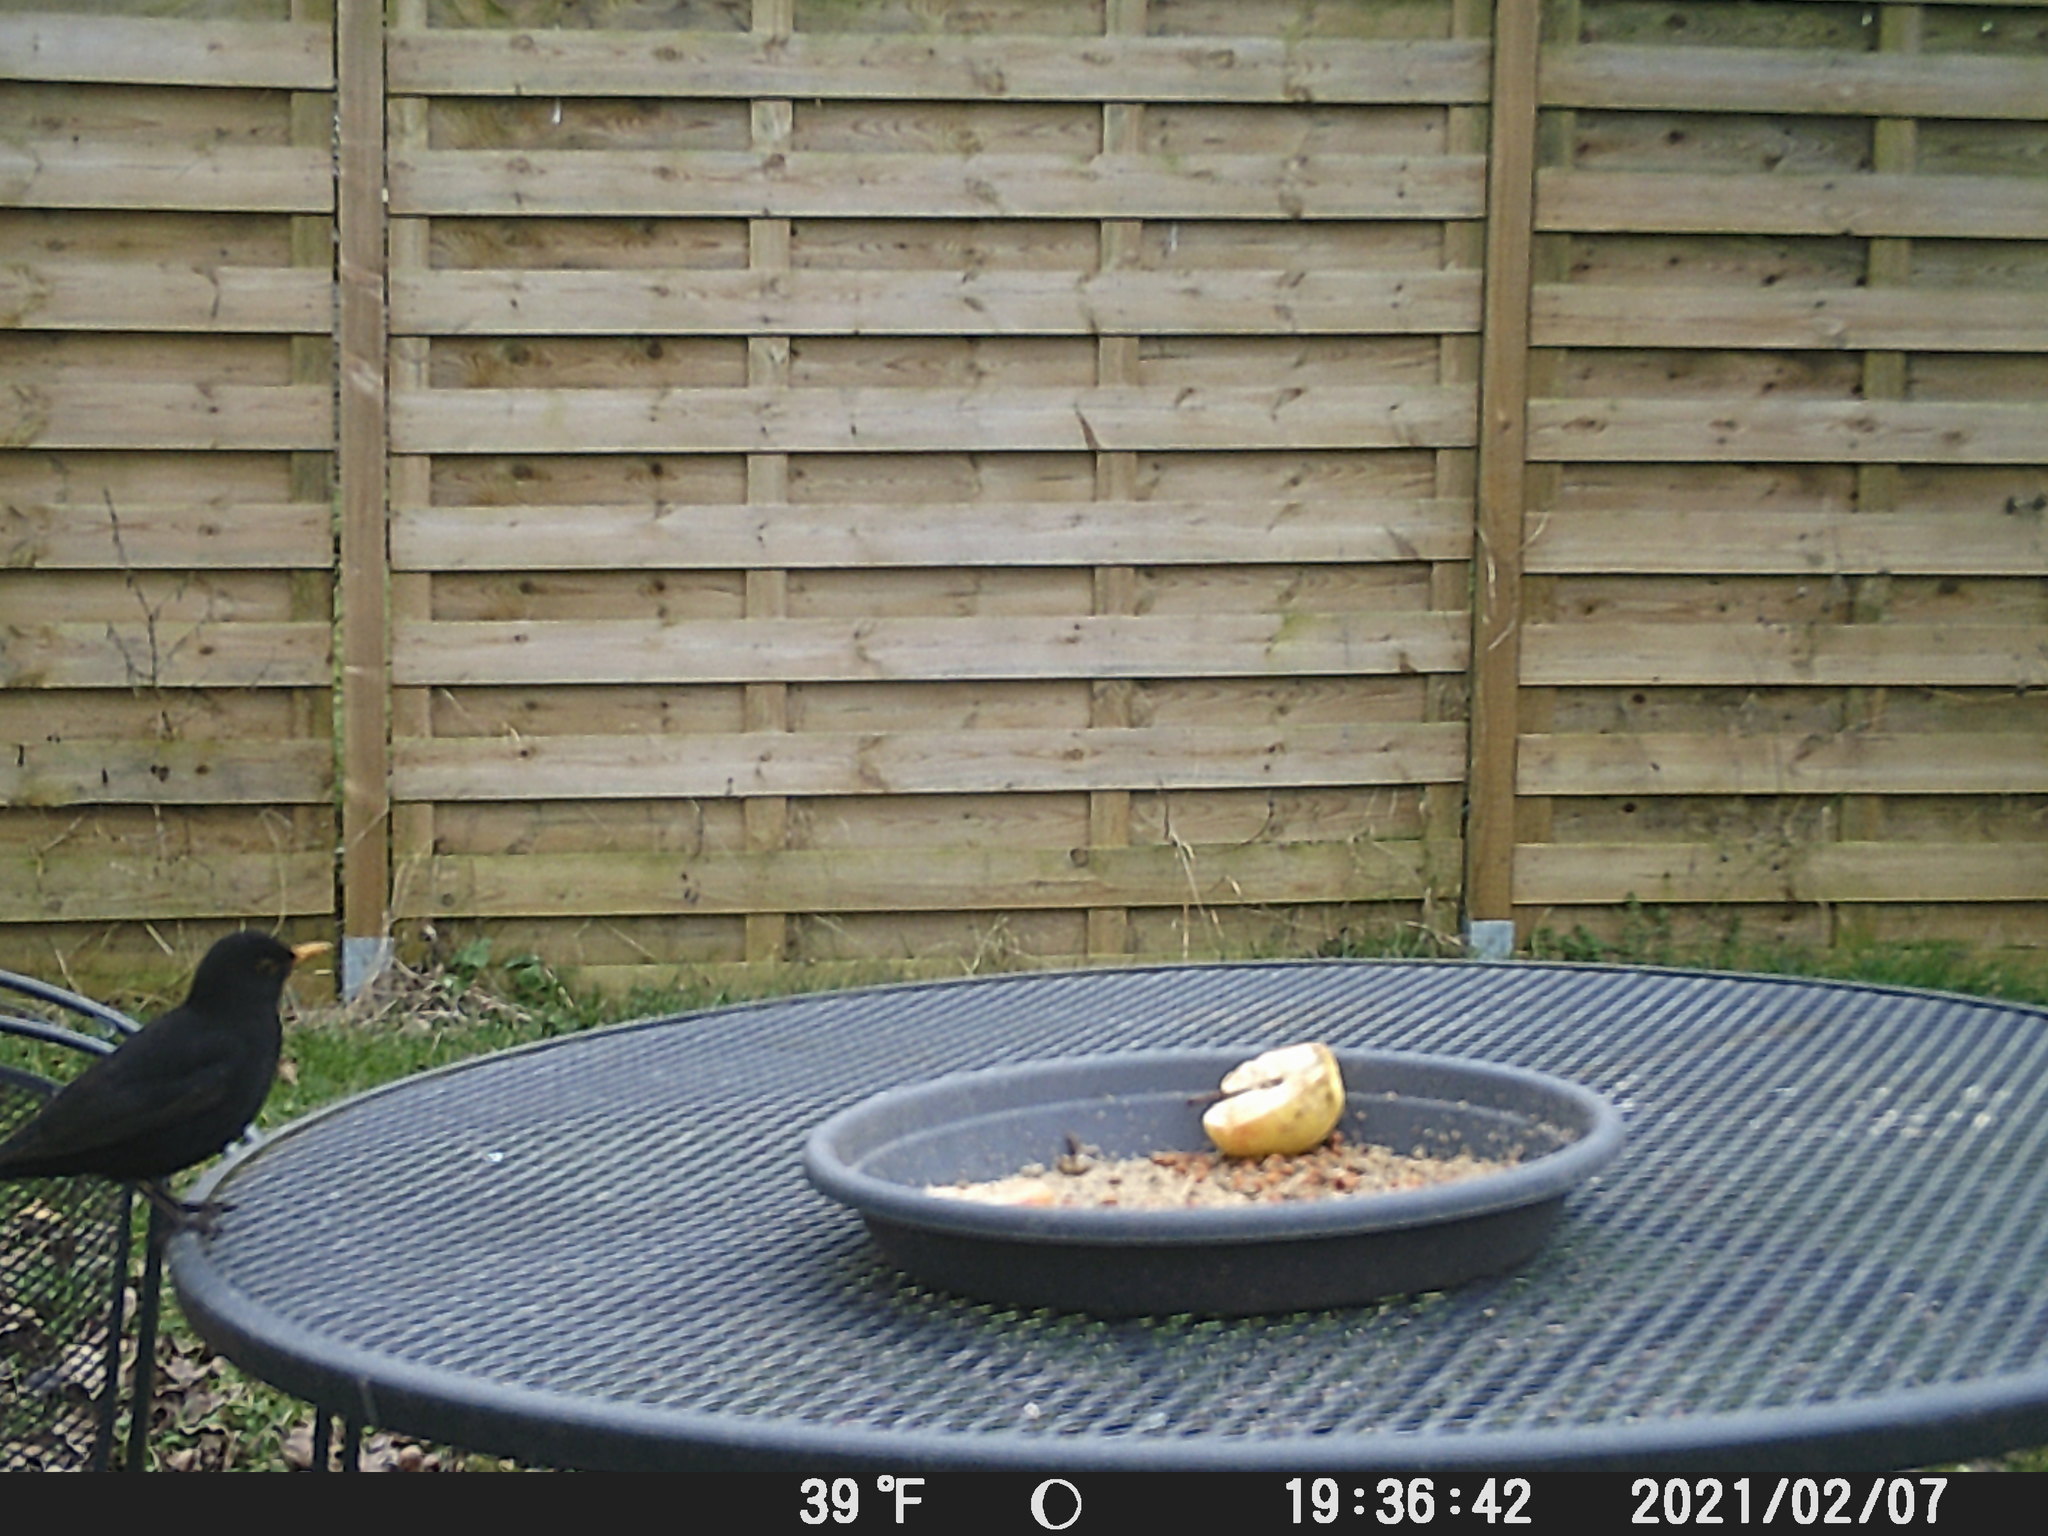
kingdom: Animalia
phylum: Chordata
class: Aves
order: Passeriformes
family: Turdidae
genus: Turdus
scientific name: Turdus merula
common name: Common blackbird
